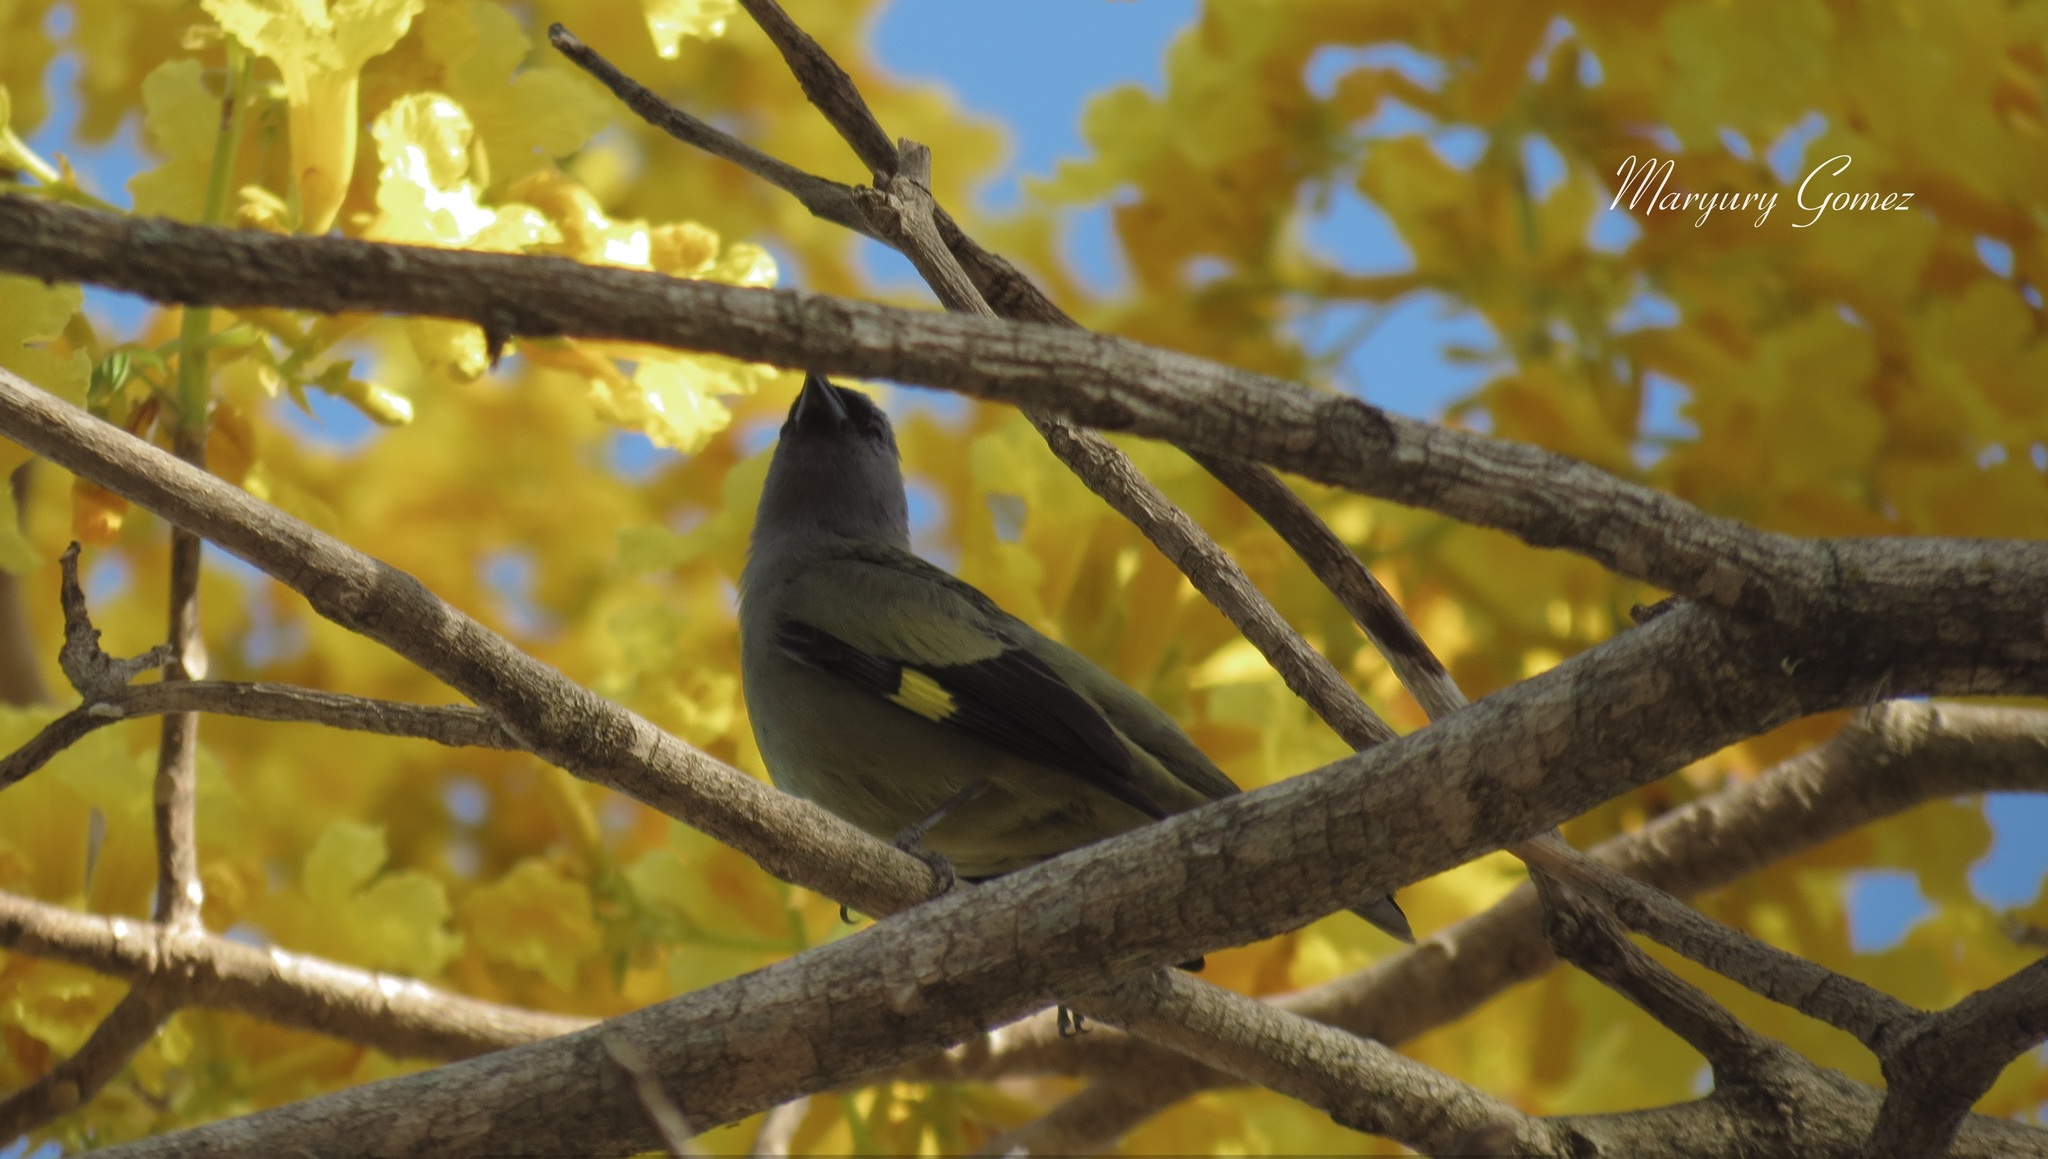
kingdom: Animalia
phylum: Chordata
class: Aves
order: Passeriformes
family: Thraupidae
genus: Thraupis
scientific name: Thraupis abbas
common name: Yellow-winged tanager
